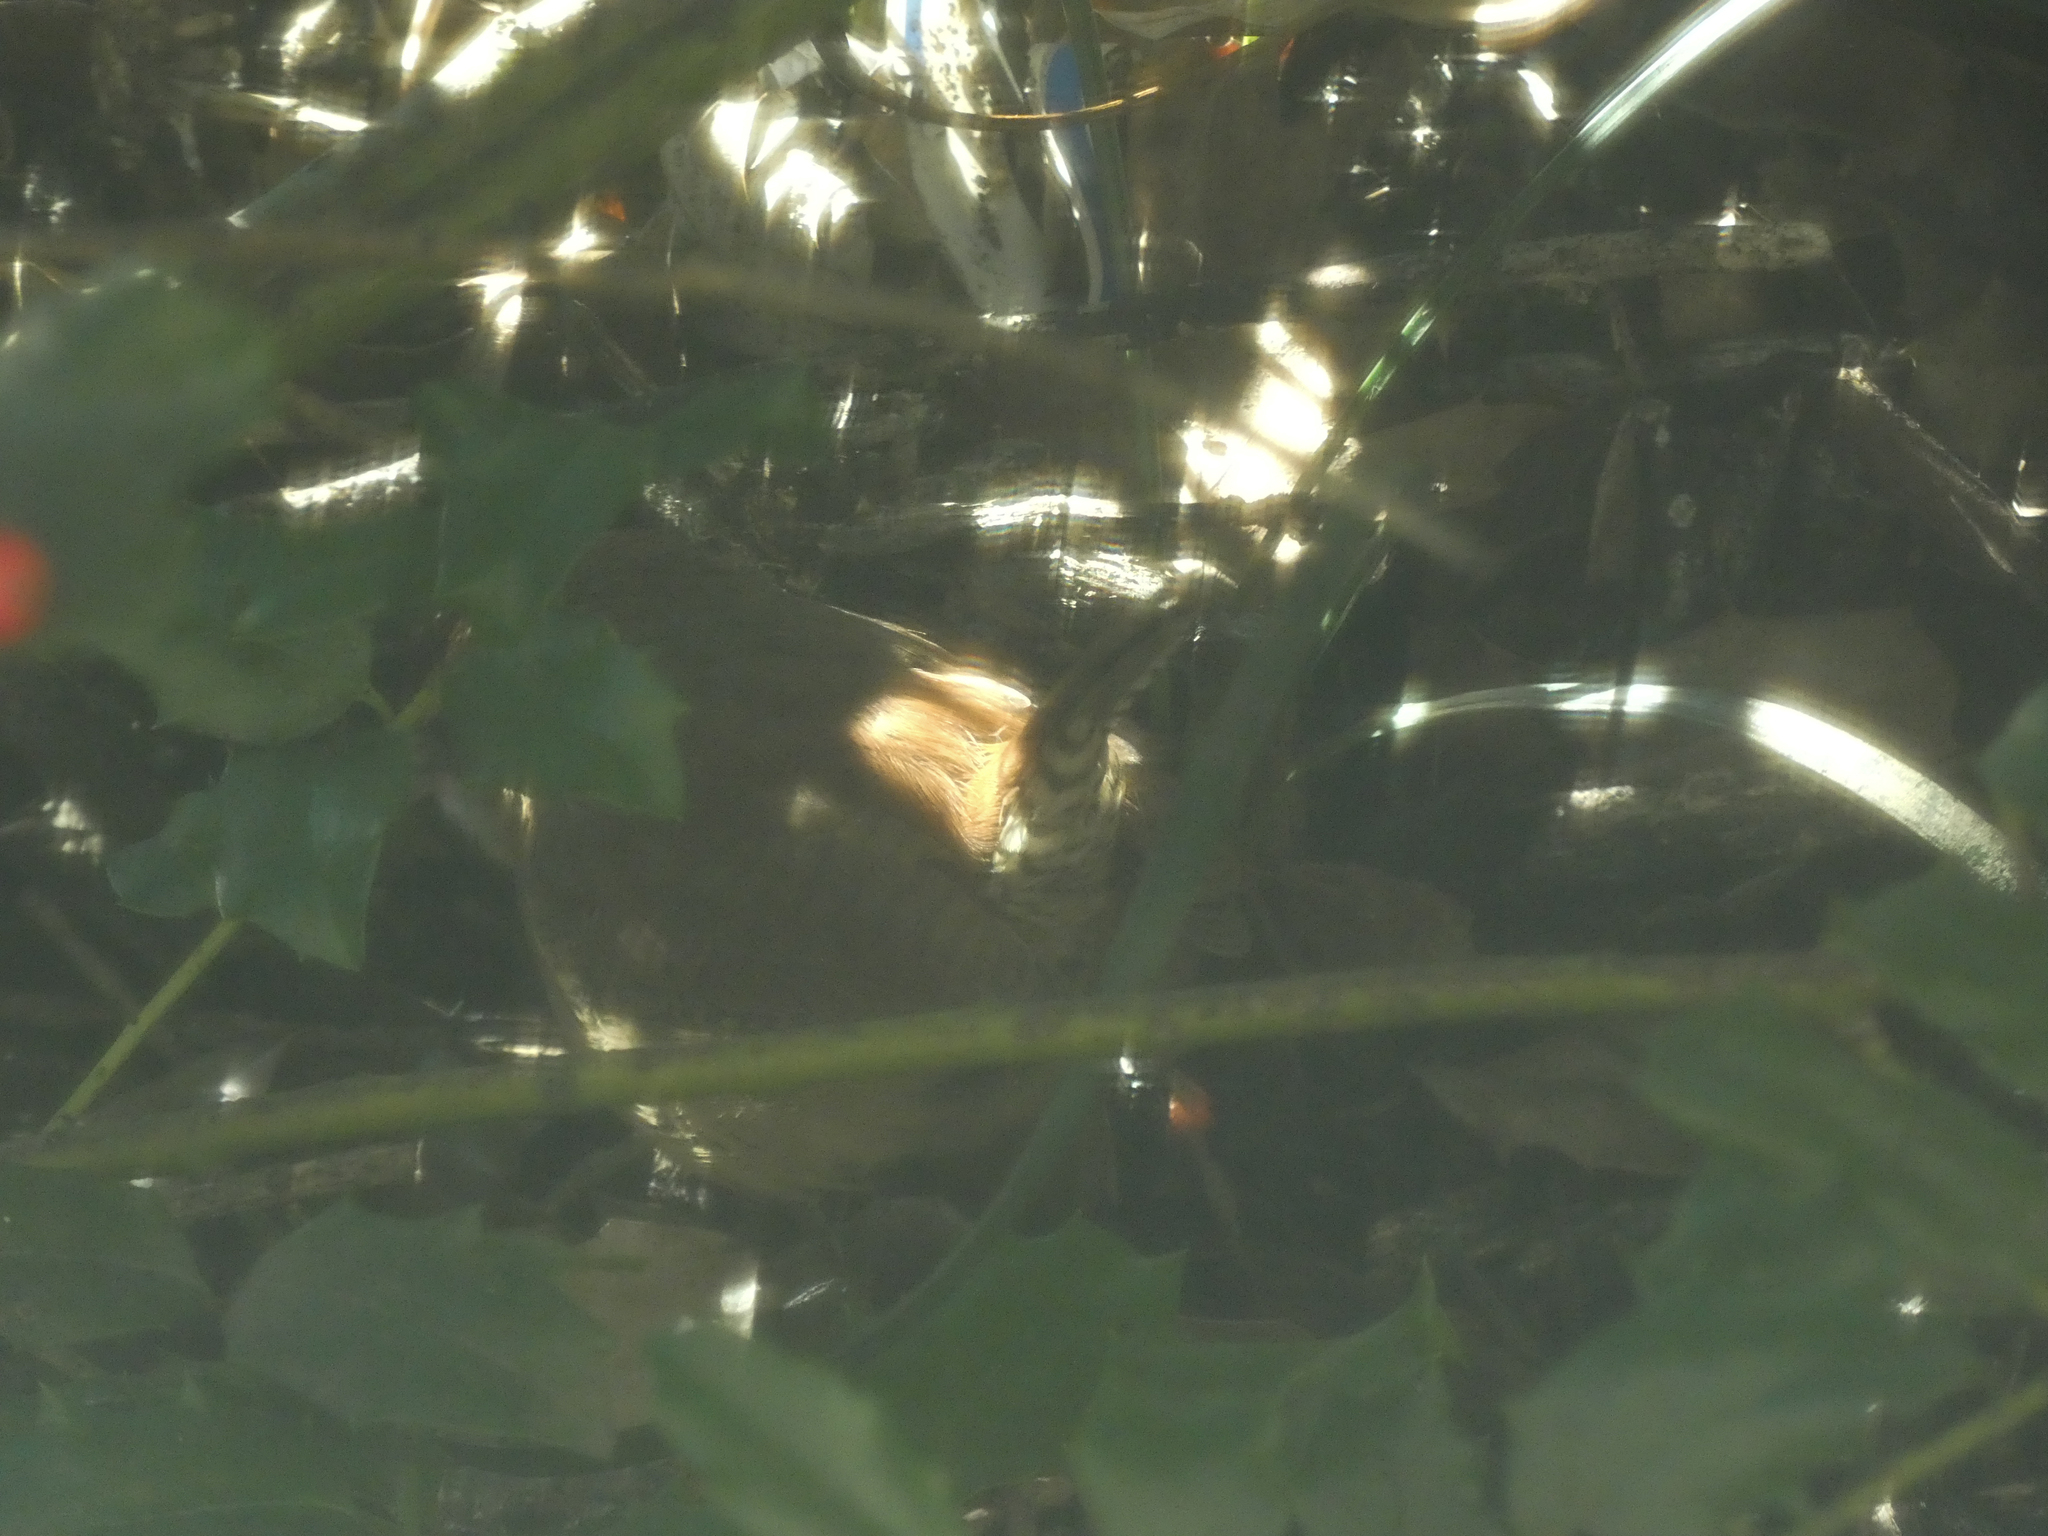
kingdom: Animalia
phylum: Chordata
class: Aves
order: Passeriformes
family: Troglodytidae
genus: Thryothorus
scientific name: Thryothorus ludovicianus
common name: Carolina wren
